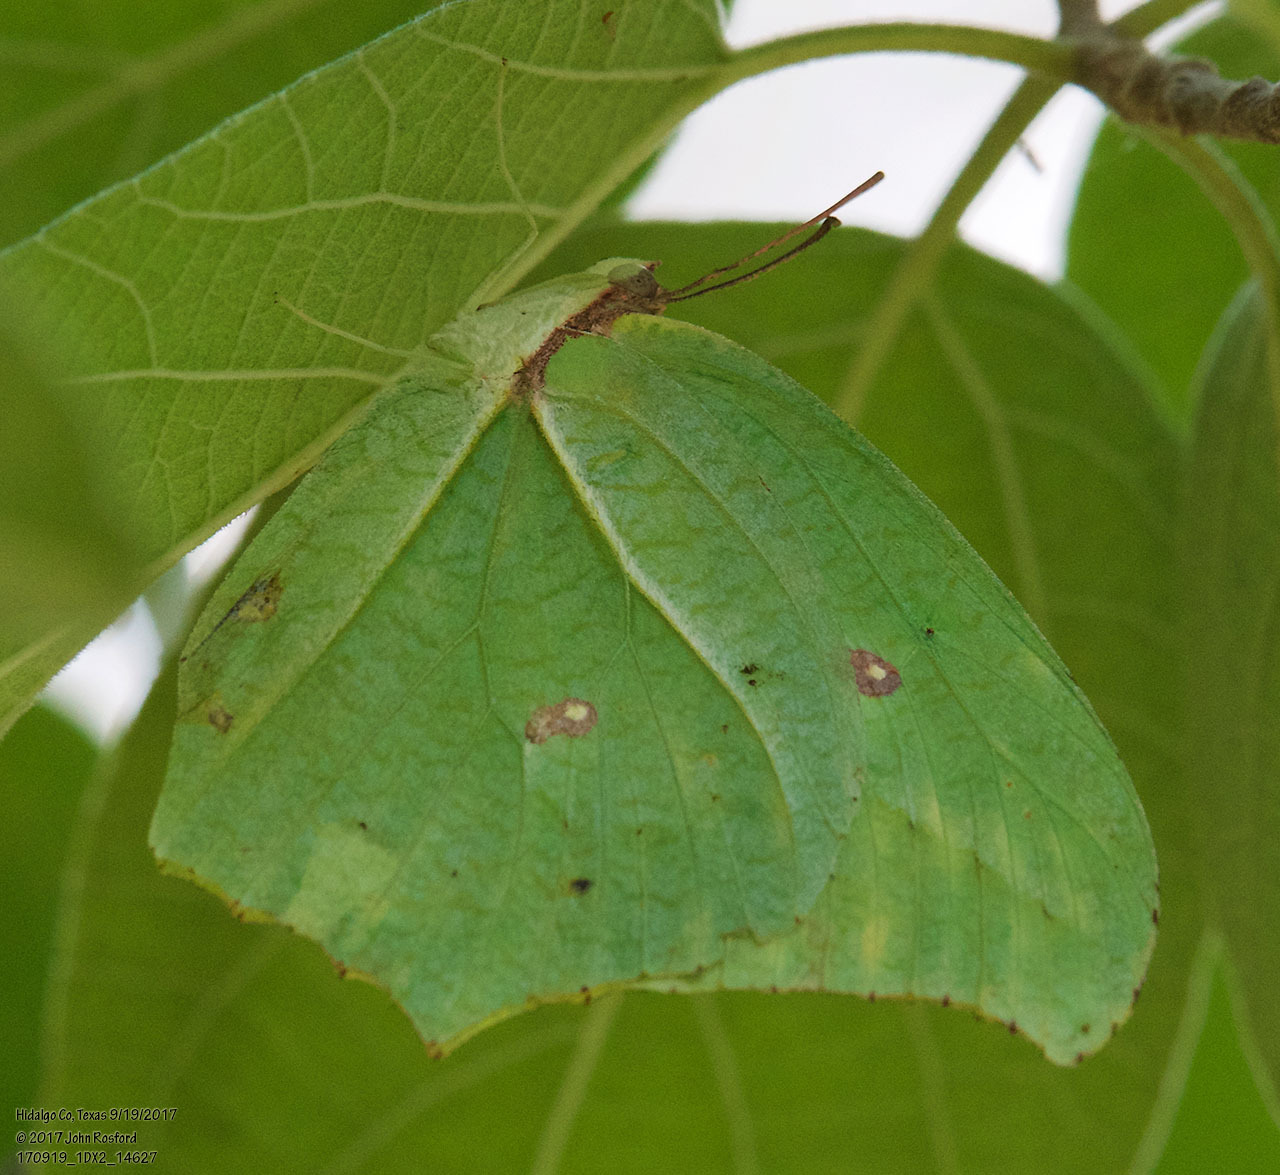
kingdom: Animalia
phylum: Arthropoda
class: Insecta
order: Lepidoptera
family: Pieridae
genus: Anteos
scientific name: Anteos maerula
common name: Angled sulphur
